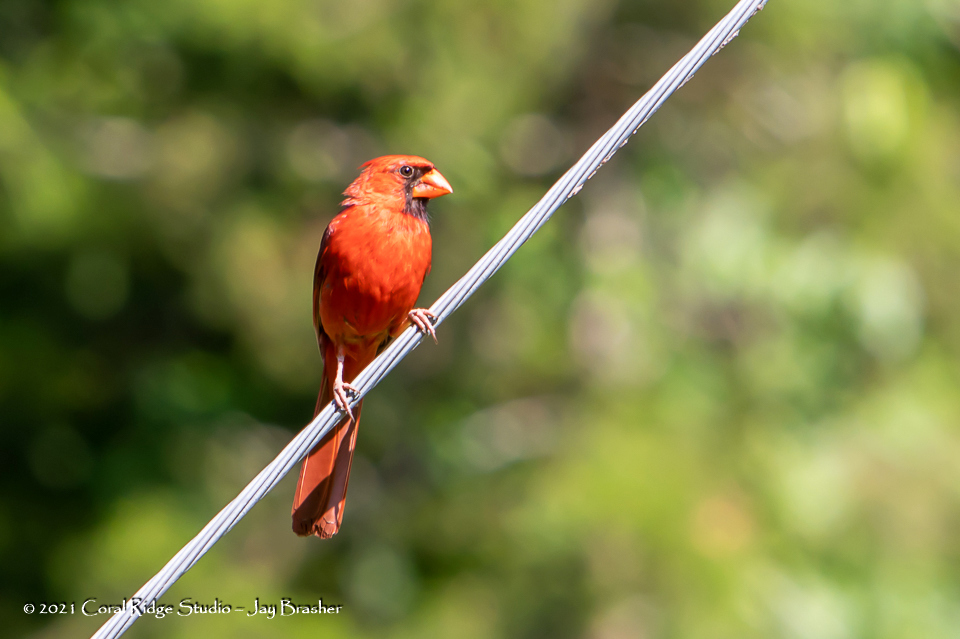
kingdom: Animalia
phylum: Chordata
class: Aves
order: Passeriformes
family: Cardinalidae
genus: Cardinalis
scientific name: Cardinalis cardinalis
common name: Northern cardinal
